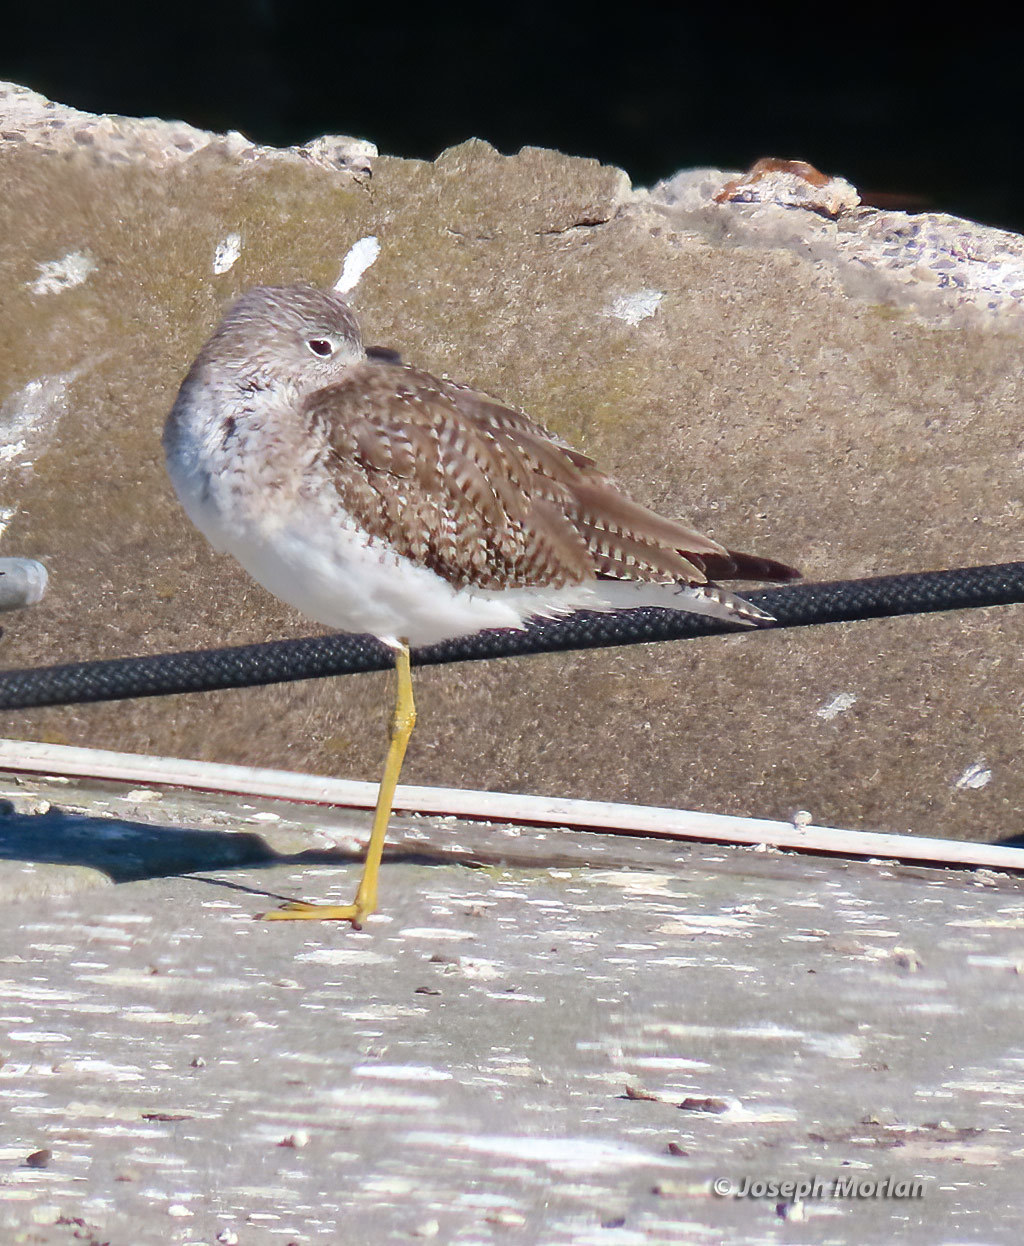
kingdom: Animalia
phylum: Chordata
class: Aves
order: Charadriiformes
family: Scolopacidae
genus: Tringa
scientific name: Tringa melanoleuca
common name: Greater yellowlegs
